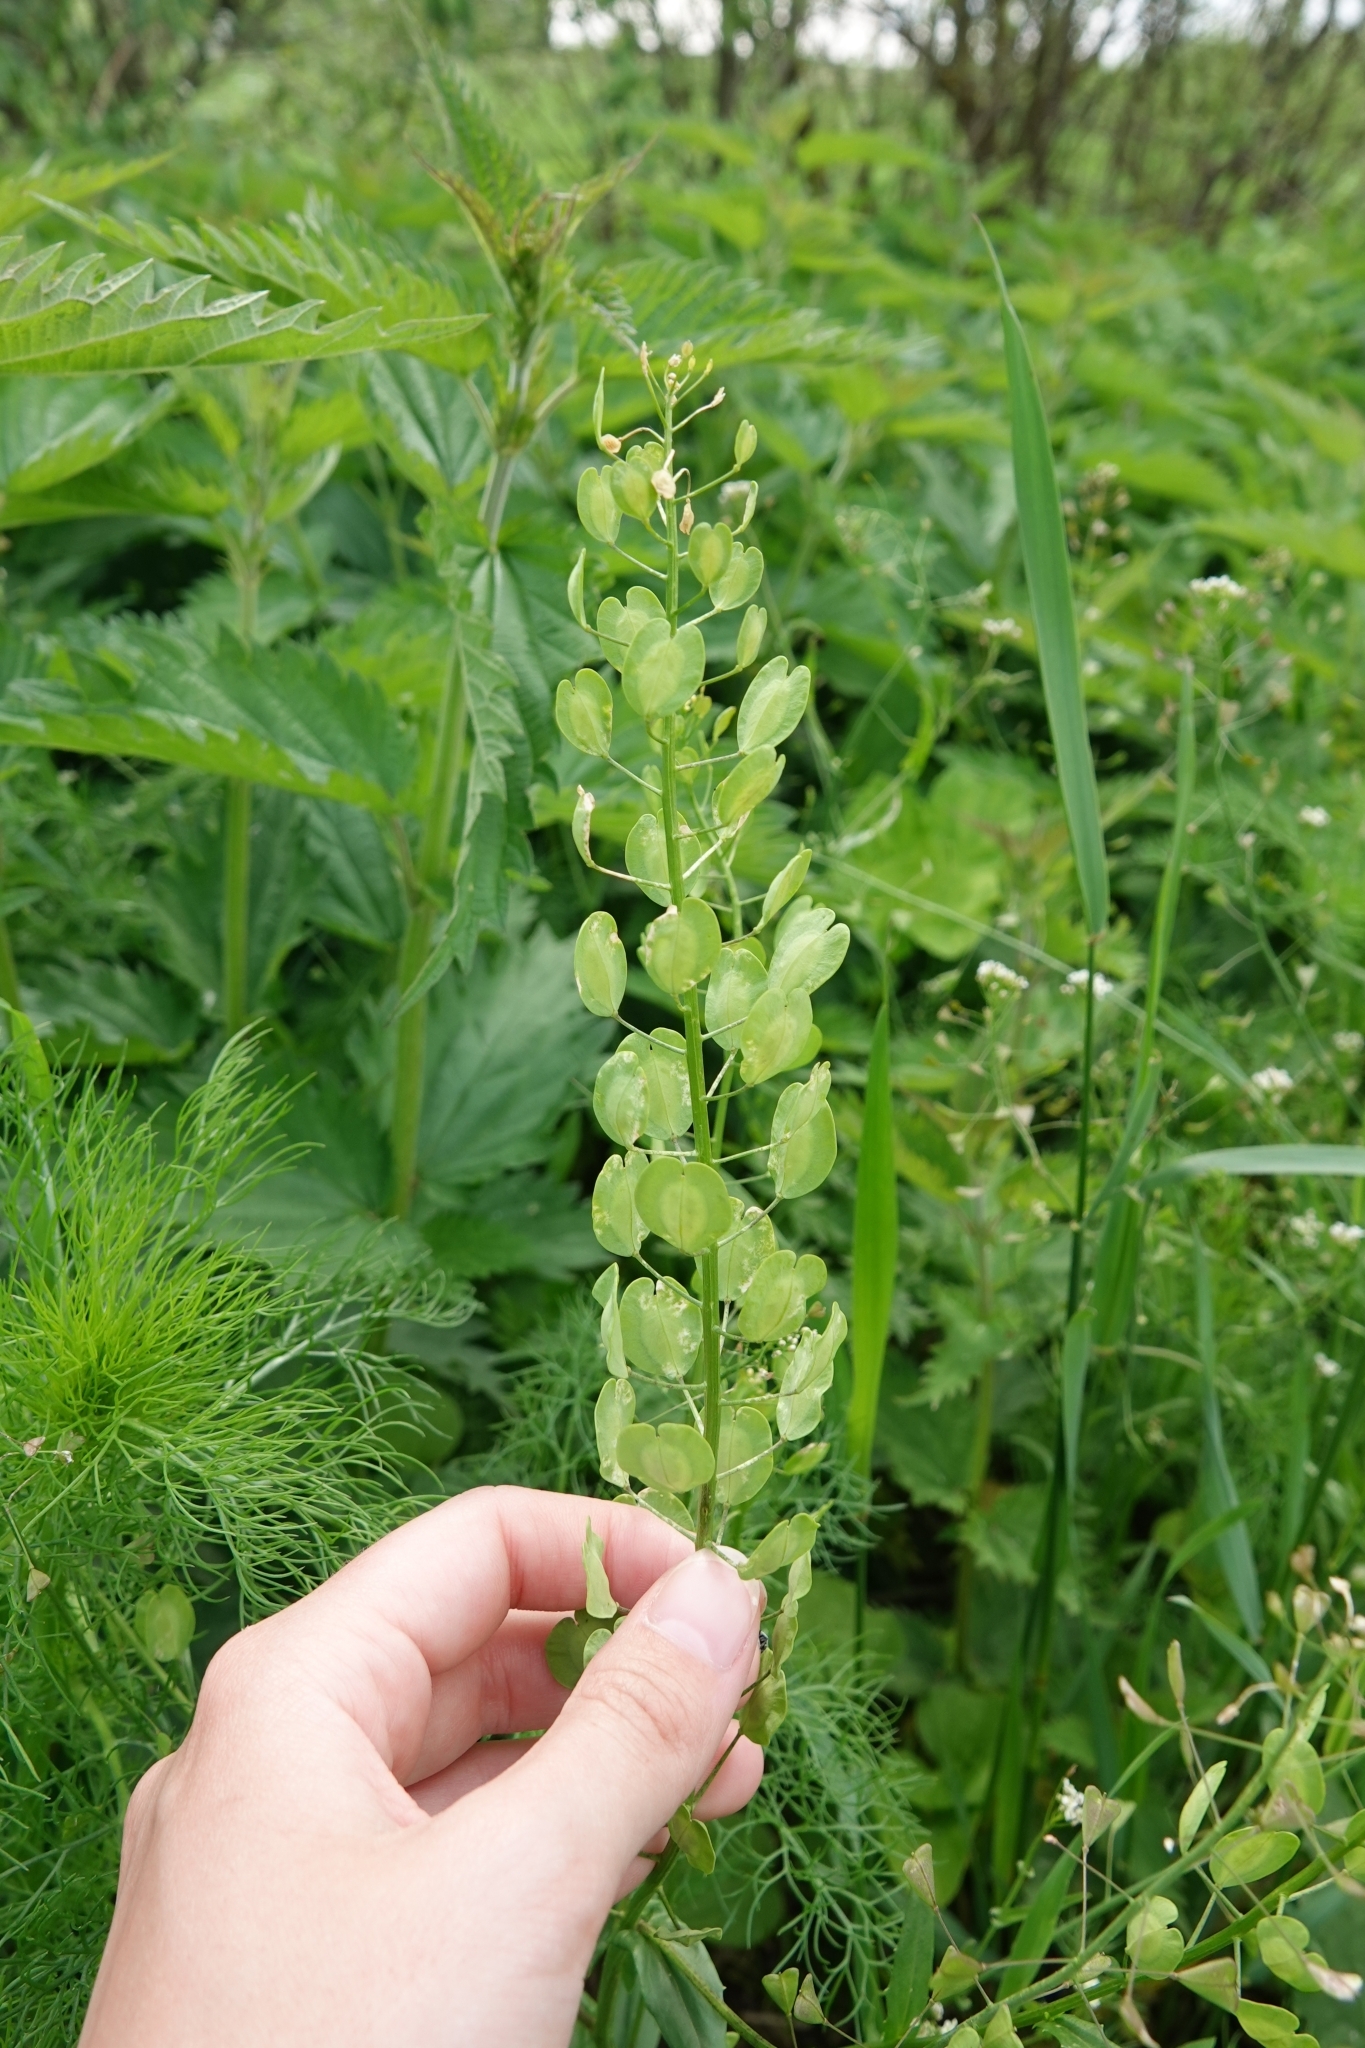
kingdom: Plantae
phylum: Tracheophyta
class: Magnoliopsida
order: Brassicales
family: Brassicaceae
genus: Thlaspi
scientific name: Thlaspi arvense
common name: Field pennycress
